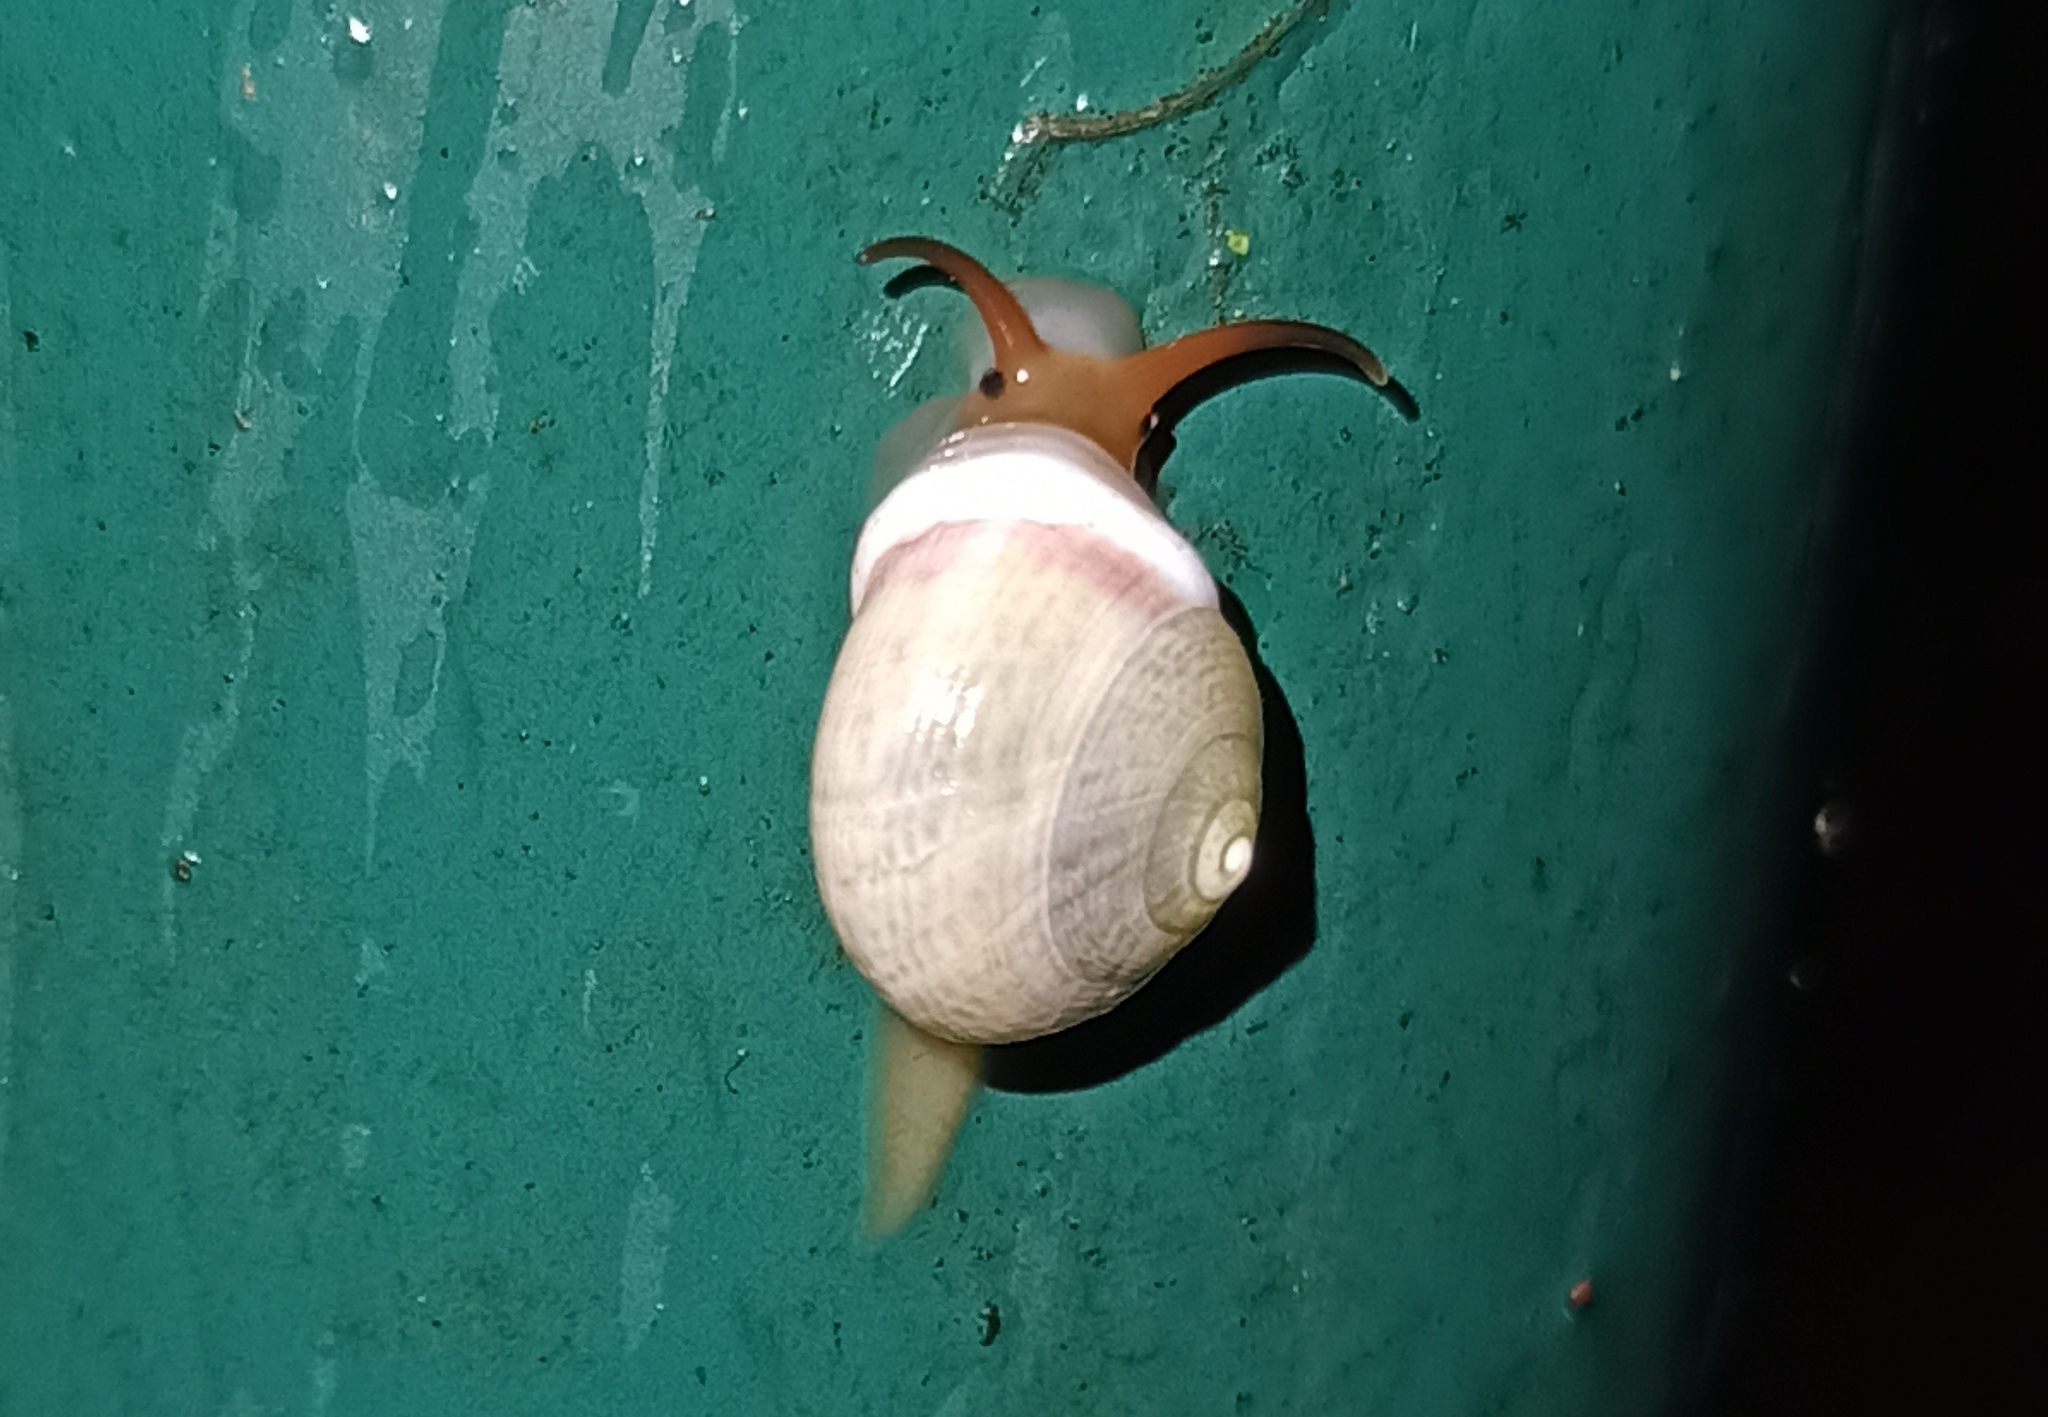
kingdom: Animalia
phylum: Mollusca
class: Gastropoda
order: Cycloneritida
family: Helicinidae
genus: Helicina
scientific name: Helicina boettgeri
